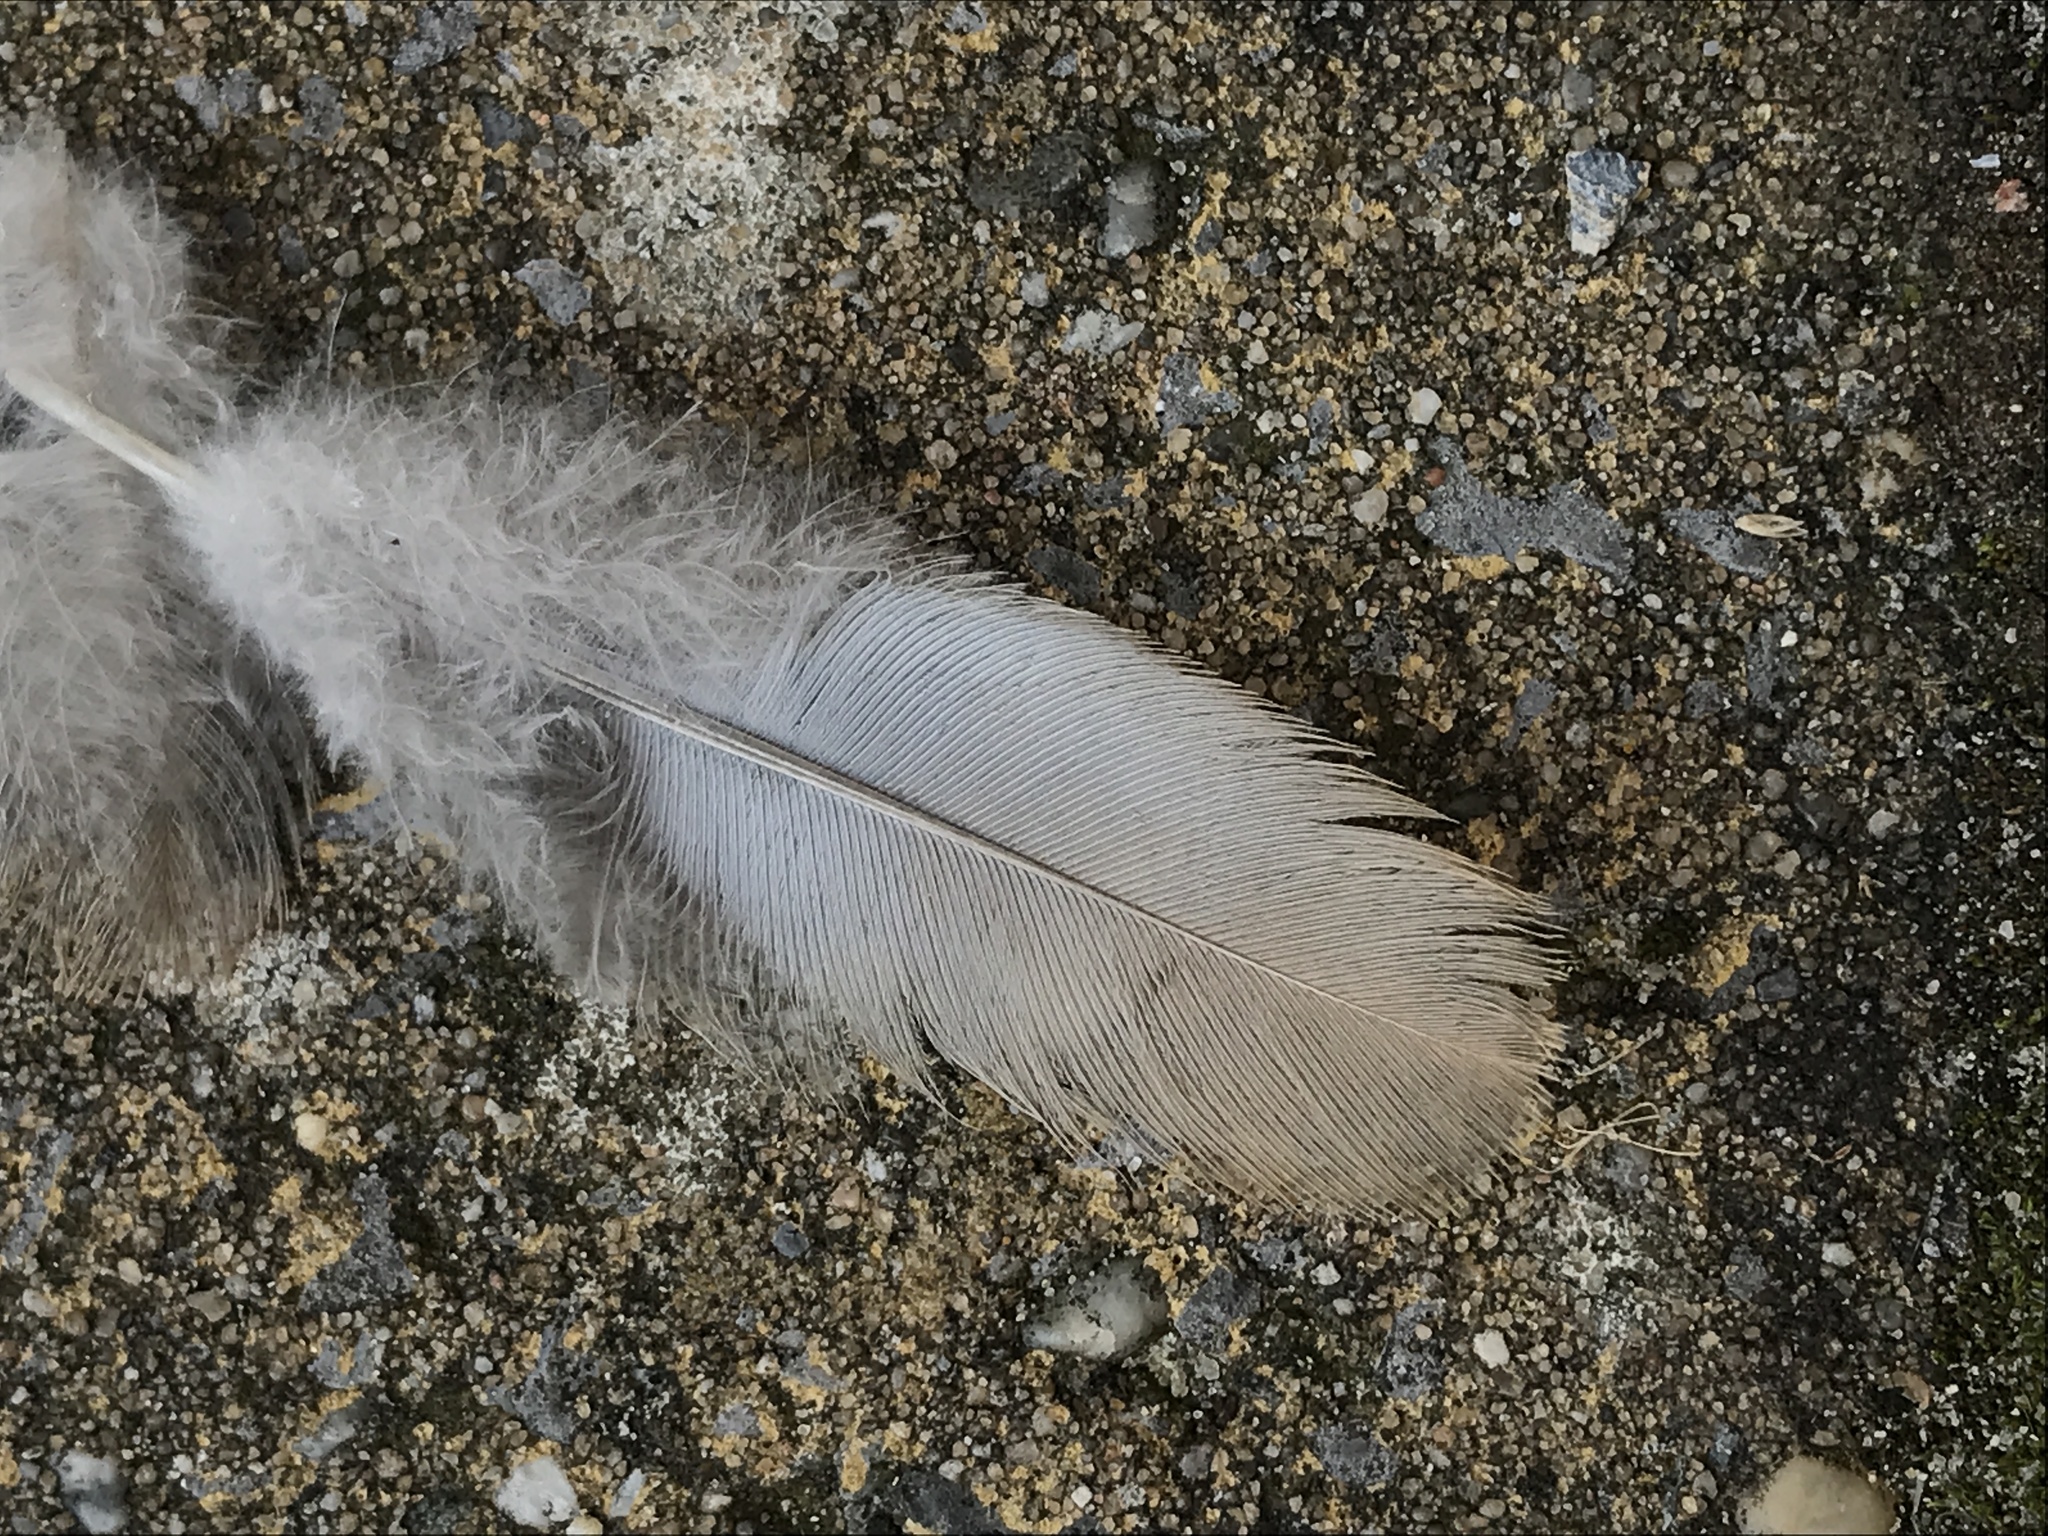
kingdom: Animalia
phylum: Chordata
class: Aves
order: Columbiformes
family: Columbidae
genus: Streptopelia
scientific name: Streptopelia decaocto
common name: Eurasian collared dove
